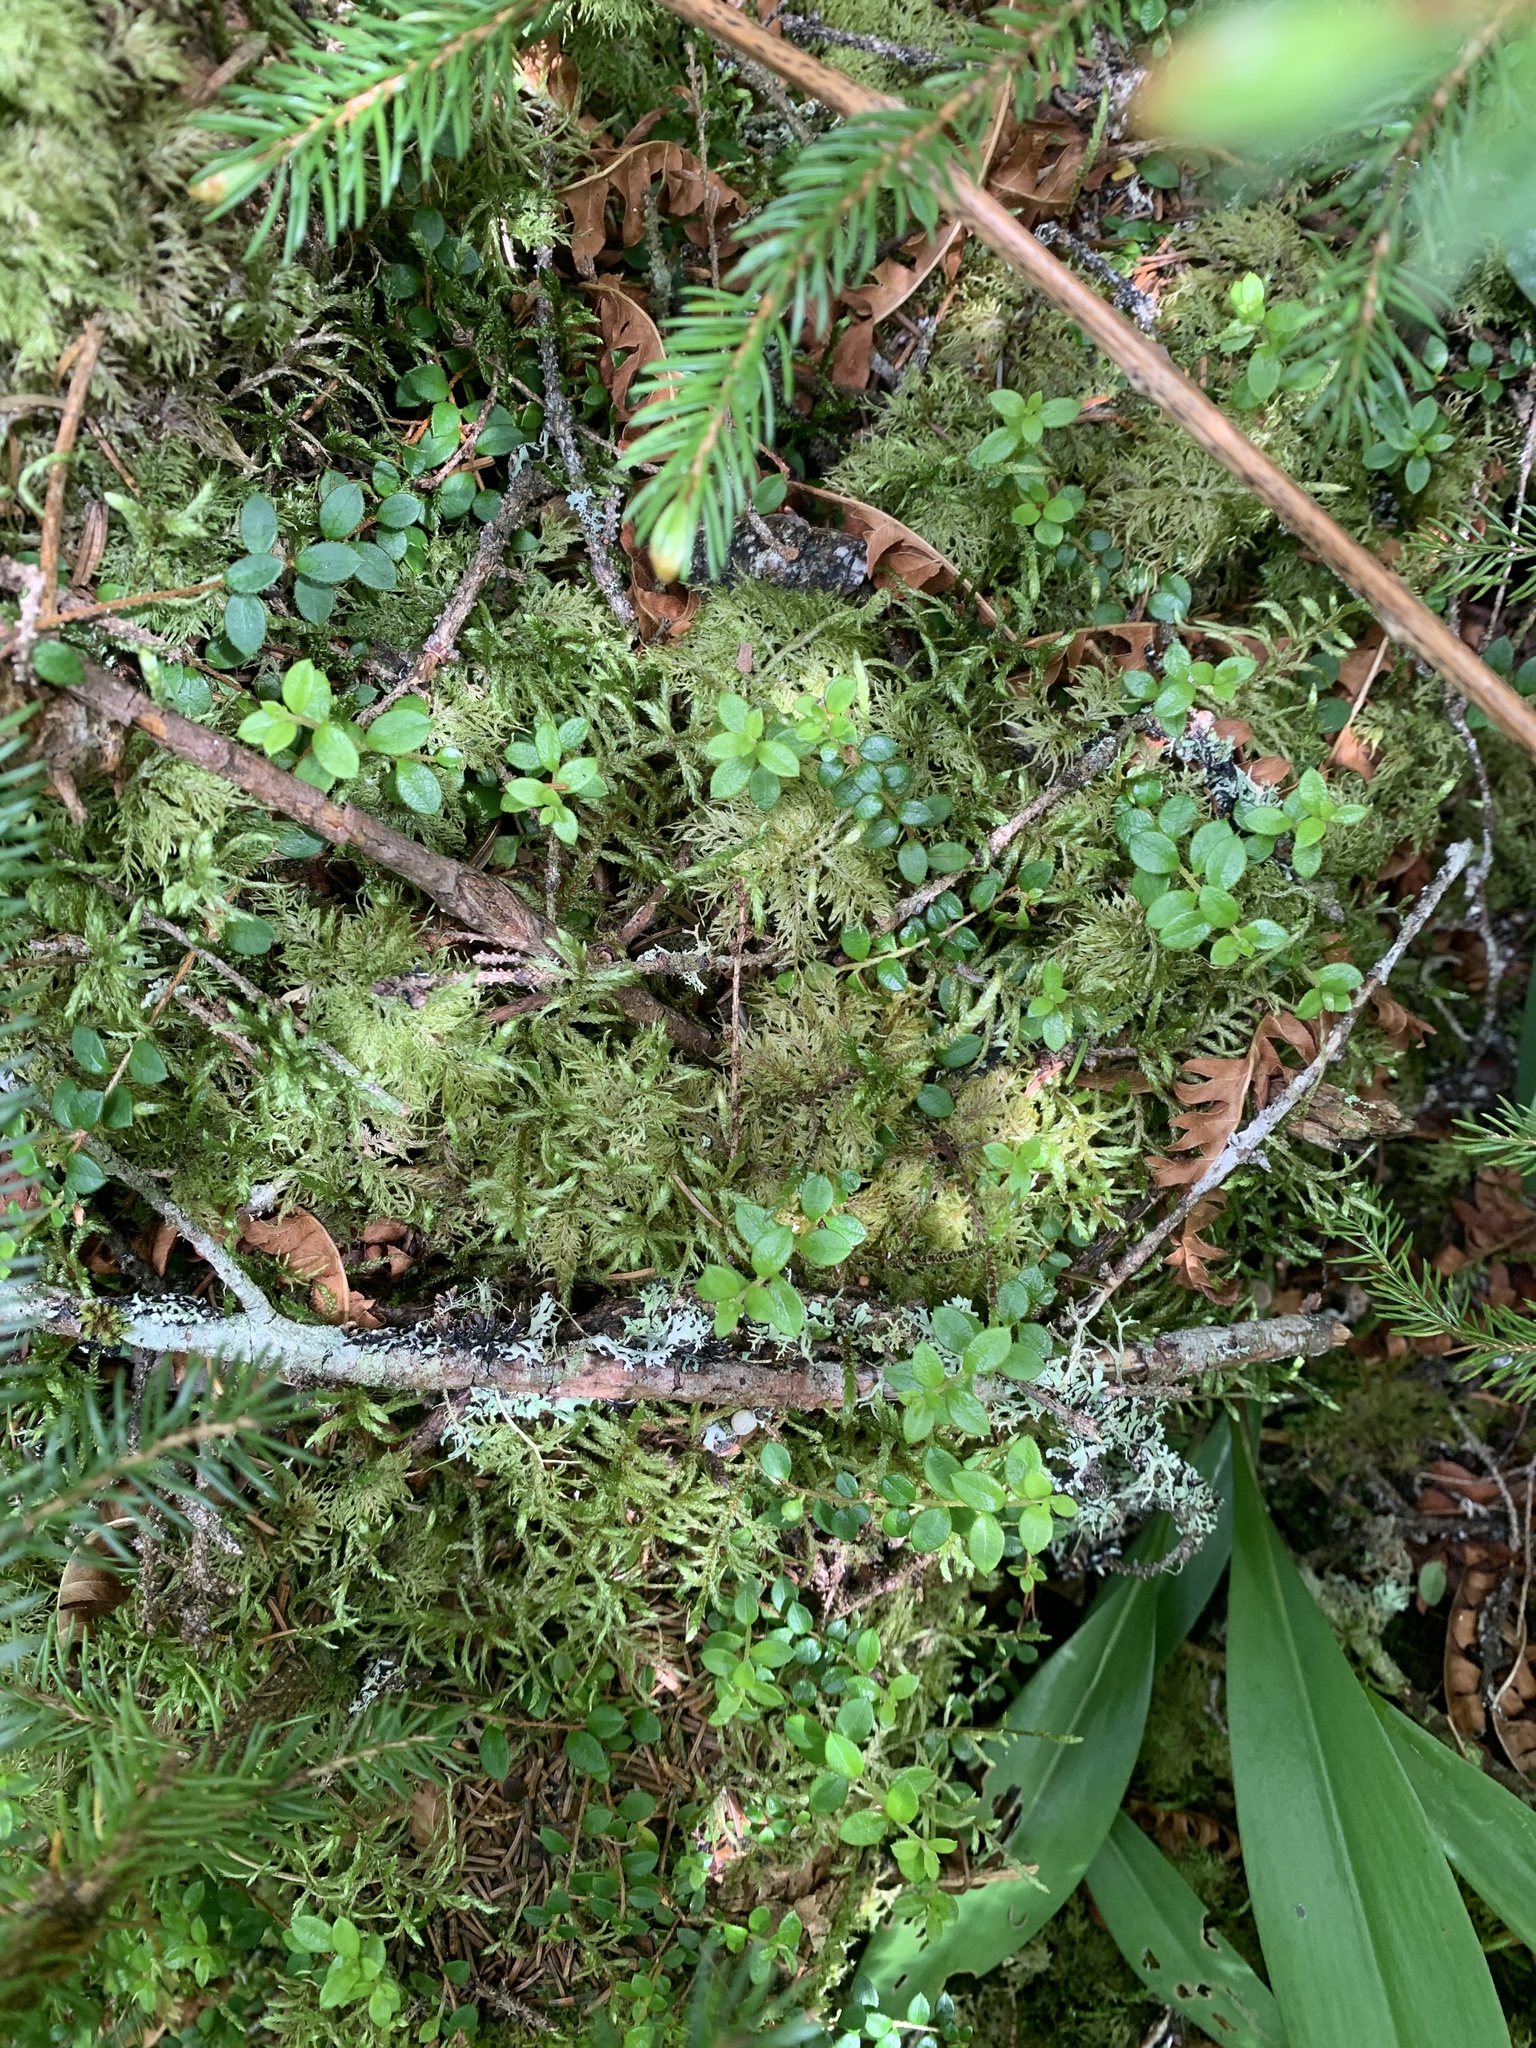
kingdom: Plantae
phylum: Tracheophyta
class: Magnoliopsida
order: Ericales
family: Ericaceae
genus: Gaultheria
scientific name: Gaultheria hispidula
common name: Cancer wintergreen
